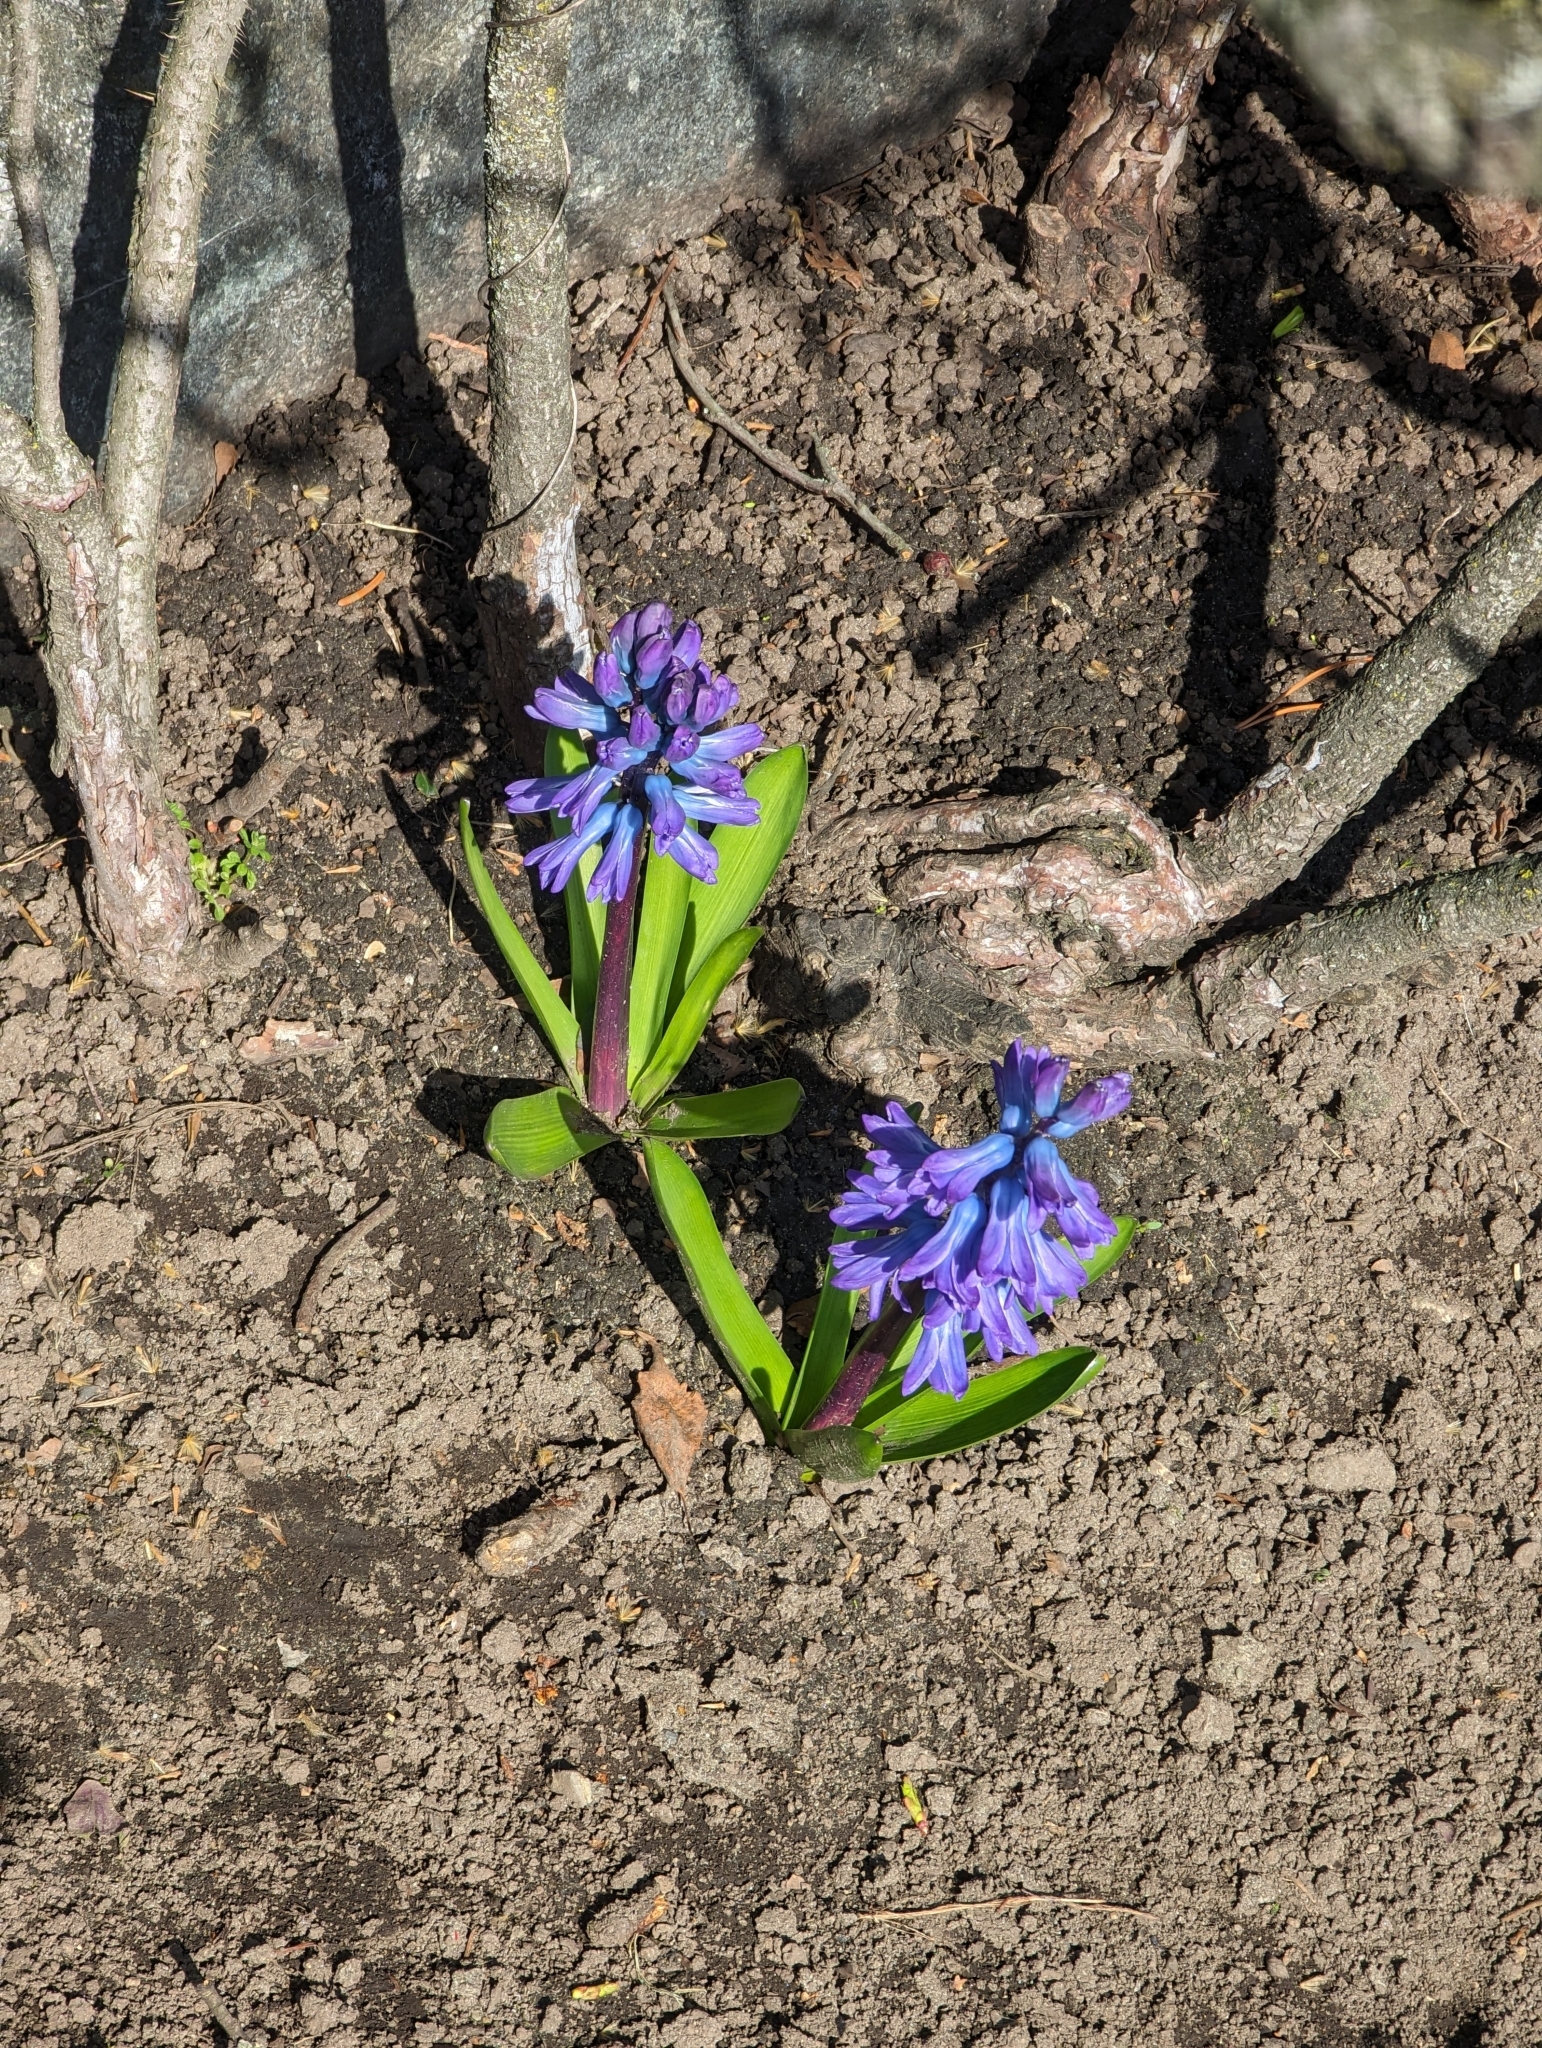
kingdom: Plantae
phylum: Tracheophyta
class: Liliopsida
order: Asparagales
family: Asparagaceae
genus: Hyacinthus
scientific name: Hyacinthus orientalis
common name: Hyacinth
